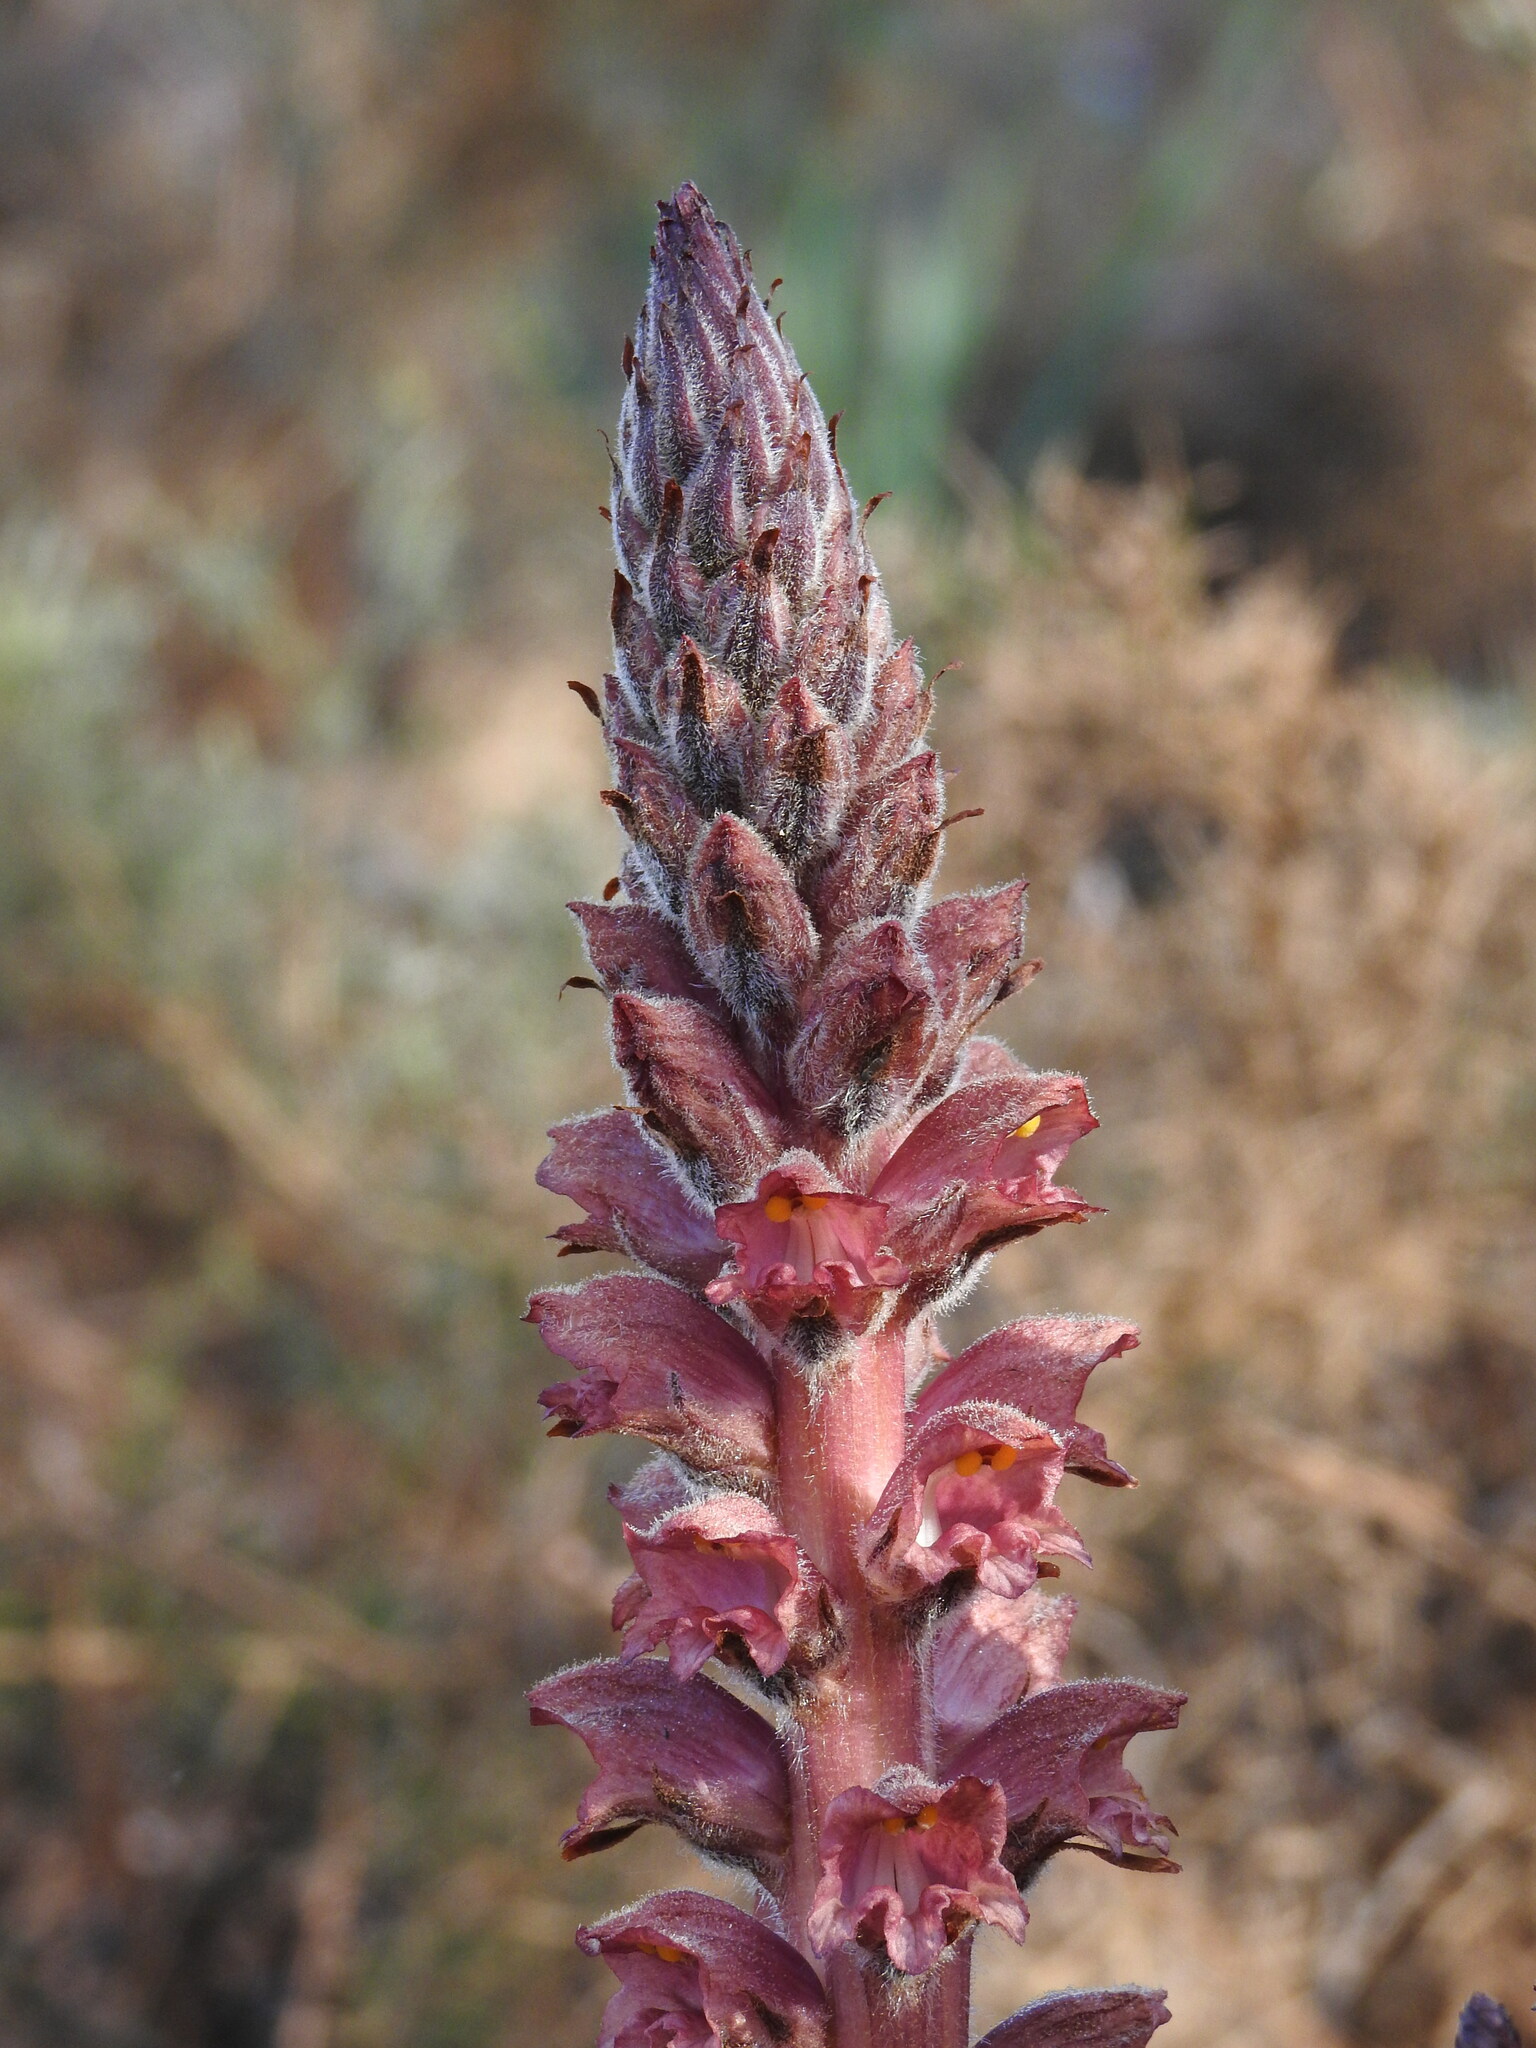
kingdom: Plantae
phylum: Tracheophyta
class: Magnoliopsida
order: Lamiales
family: Orobanchaceae
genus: Orobanche
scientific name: Orobanche rapum-genistae
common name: Greater broomrape
